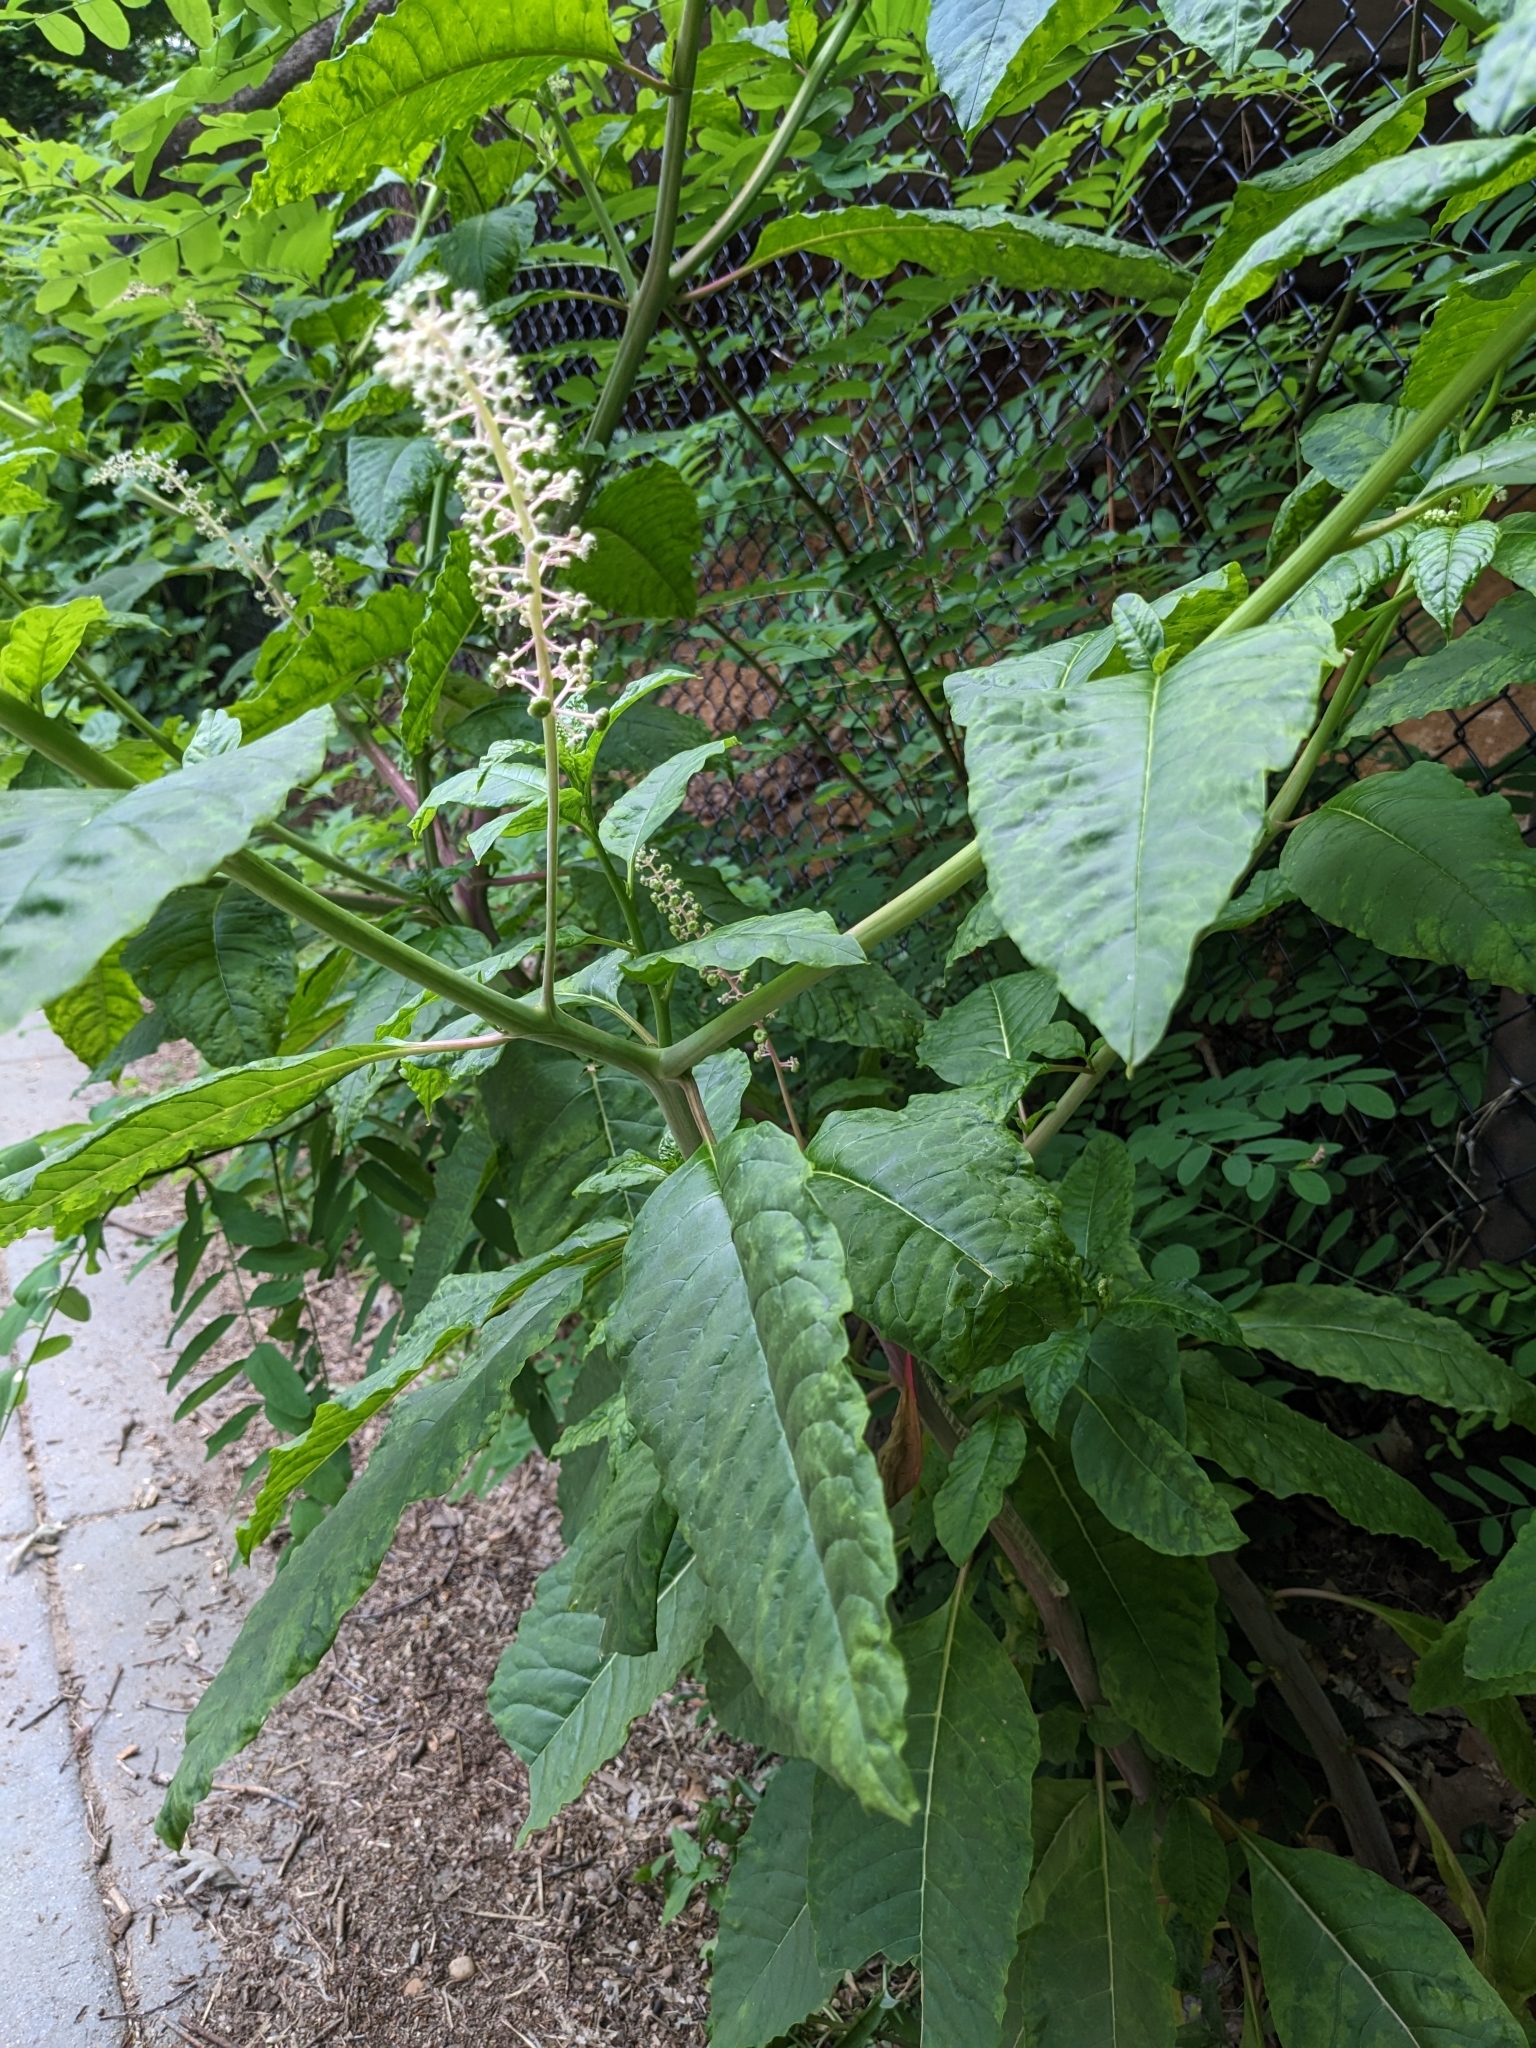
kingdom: Plantae
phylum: Tracheophyta
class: Magnoliopsida
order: Caryophyllales
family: Phytolaccaceae
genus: Phytolacca
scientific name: Phytolacca americana
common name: American pokeweed
